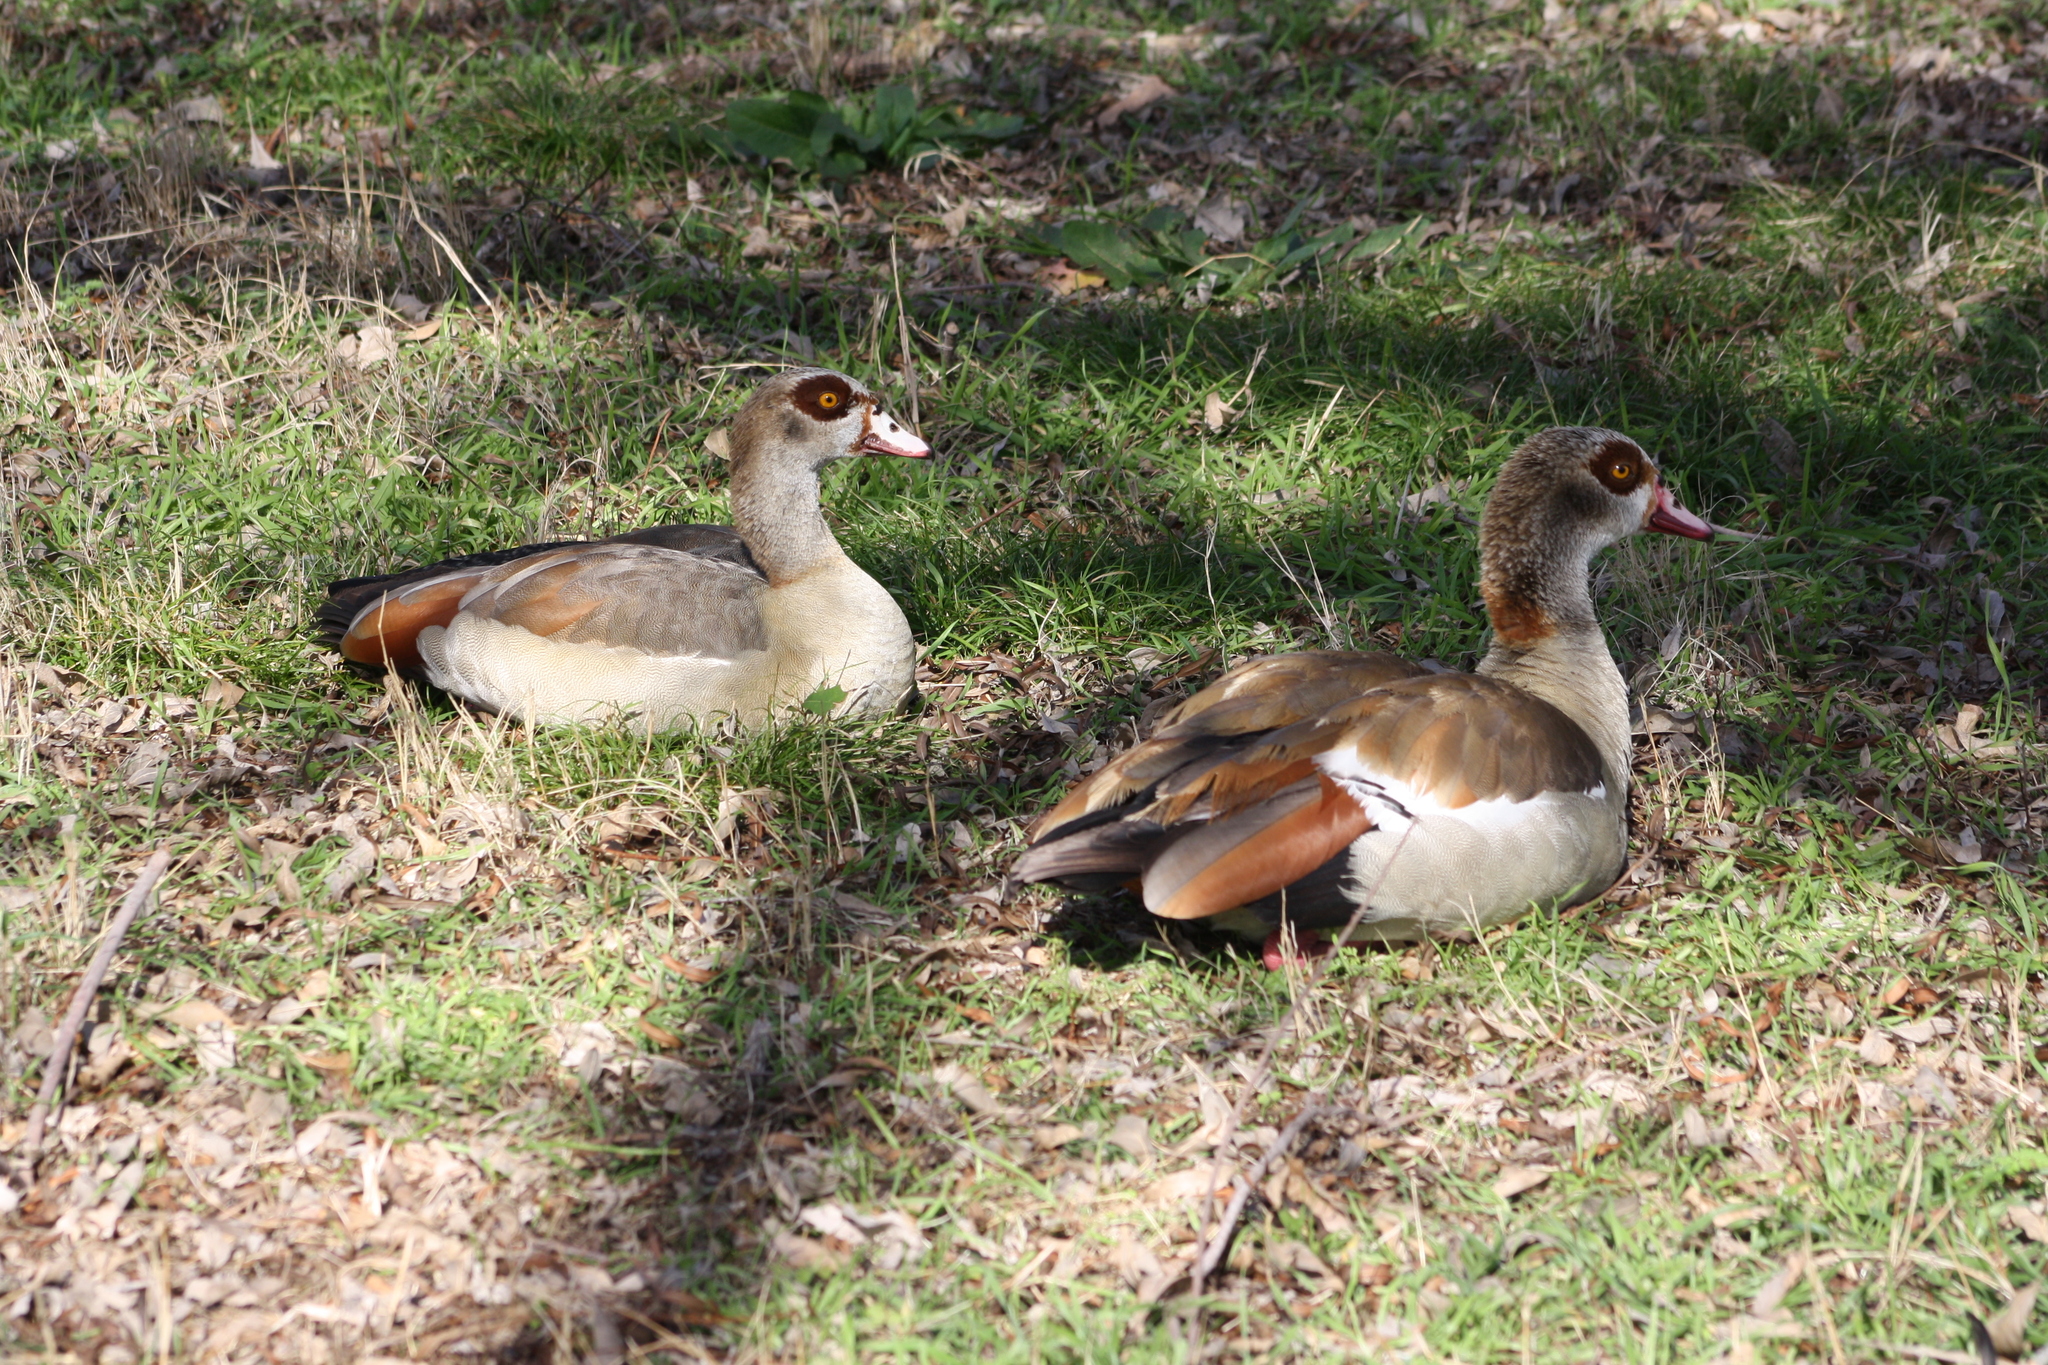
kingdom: Animalia
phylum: Chordata
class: Aves
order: Anseriformes
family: Anatidae
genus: Alopochen
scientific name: Alopochen aegyptiaca
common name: Egyptian goose
